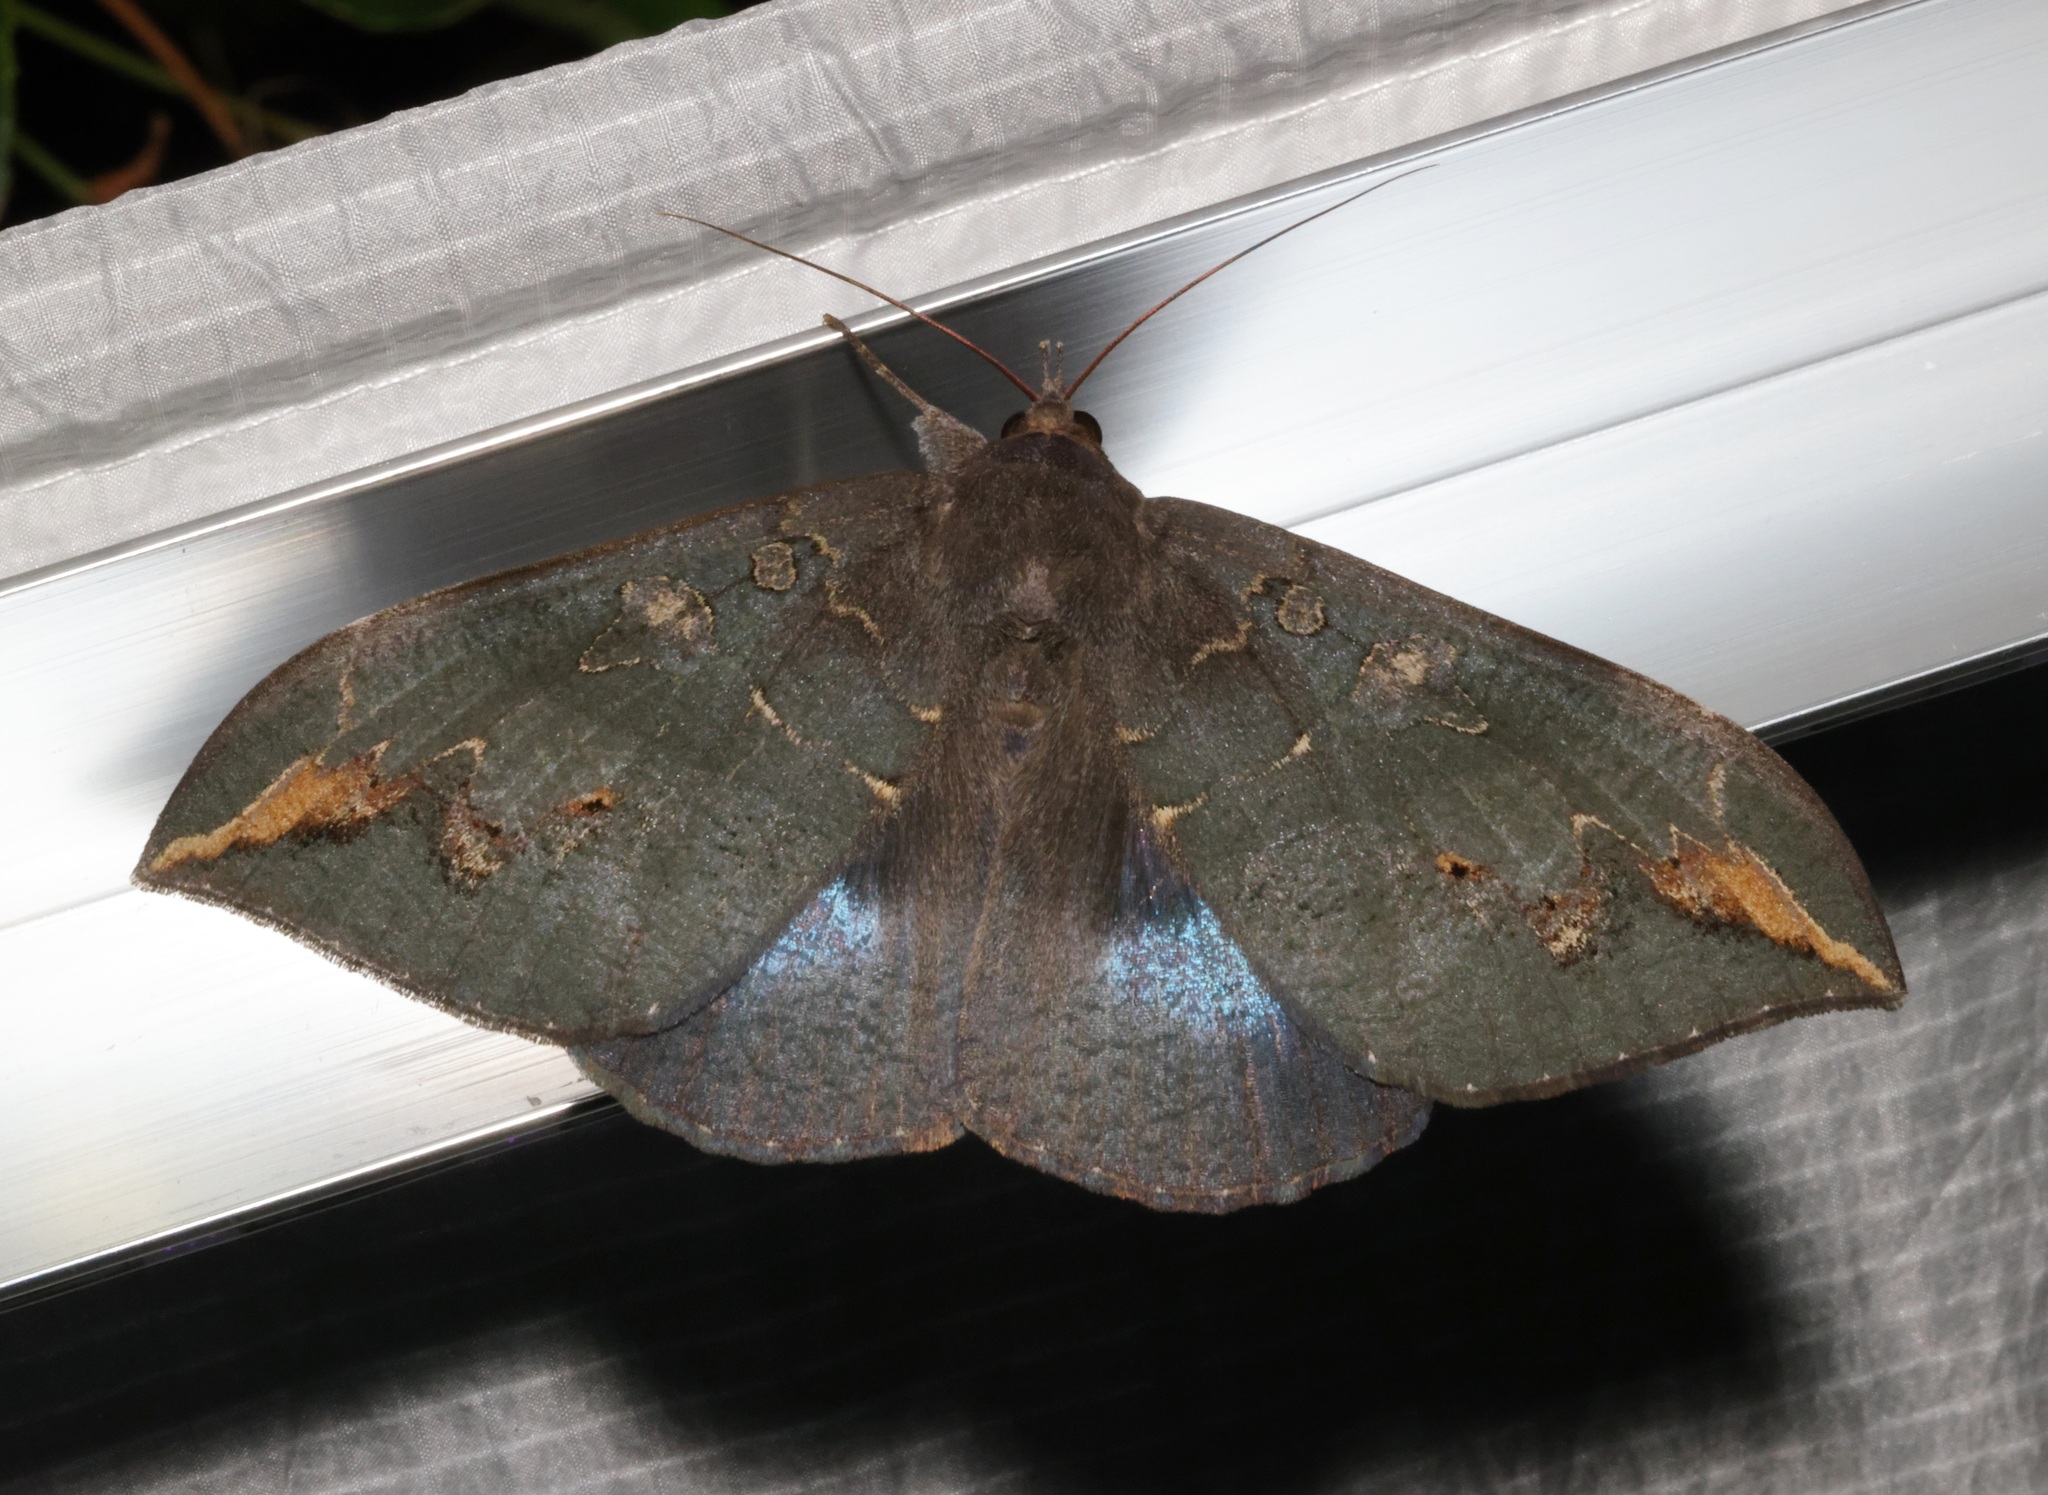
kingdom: Animalia
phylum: Arthropoda
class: Insecta
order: Lepidoptera
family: Erebidae
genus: Ischyja
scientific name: Ischyja ferrifracta
